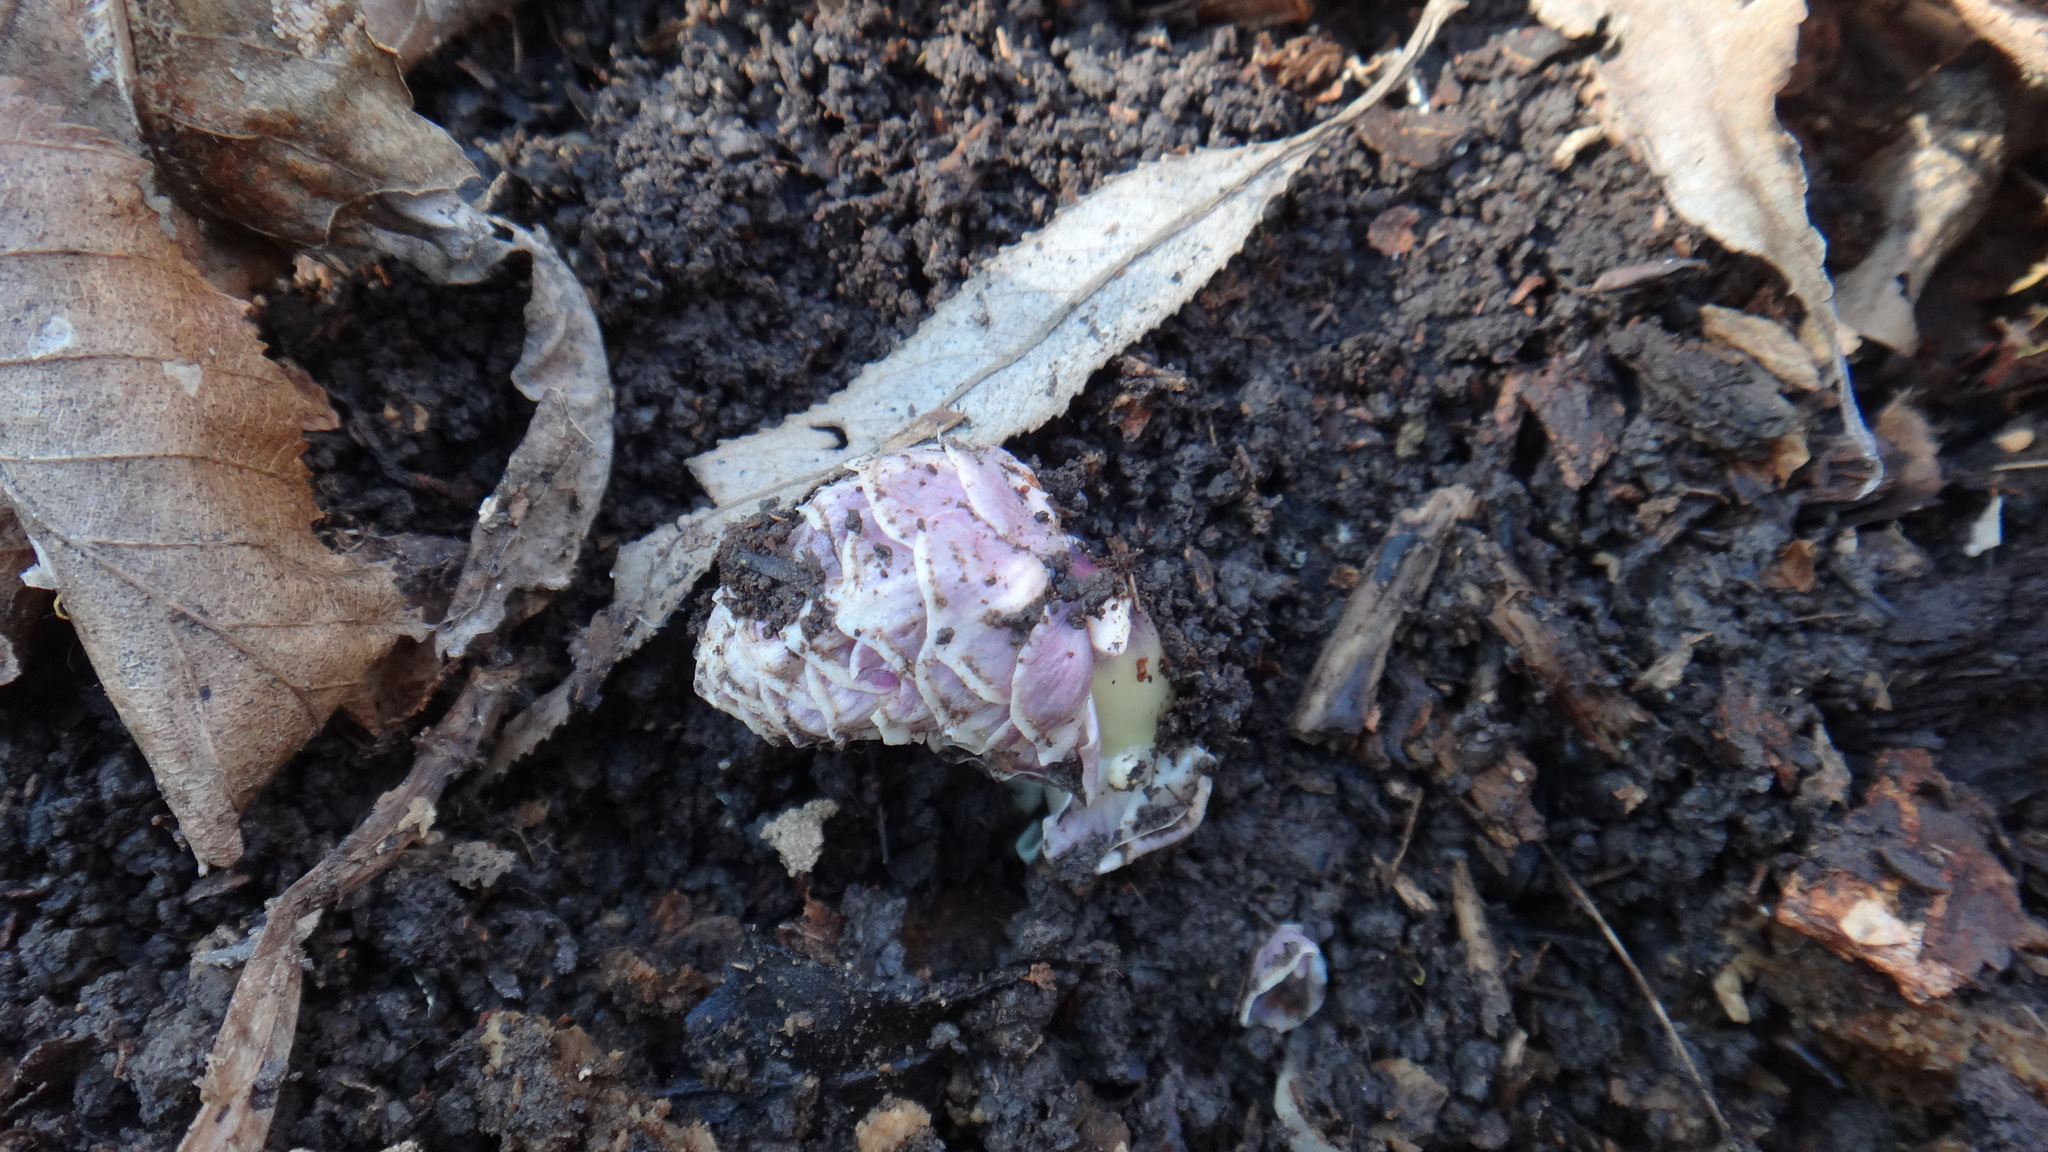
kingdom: Plantae
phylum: Tracheophyta
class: Magnoliopsida
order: Lamiales
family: Orobanchaceae
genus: Lathraea
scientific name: Lathraea squamaria
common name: Toothwort
